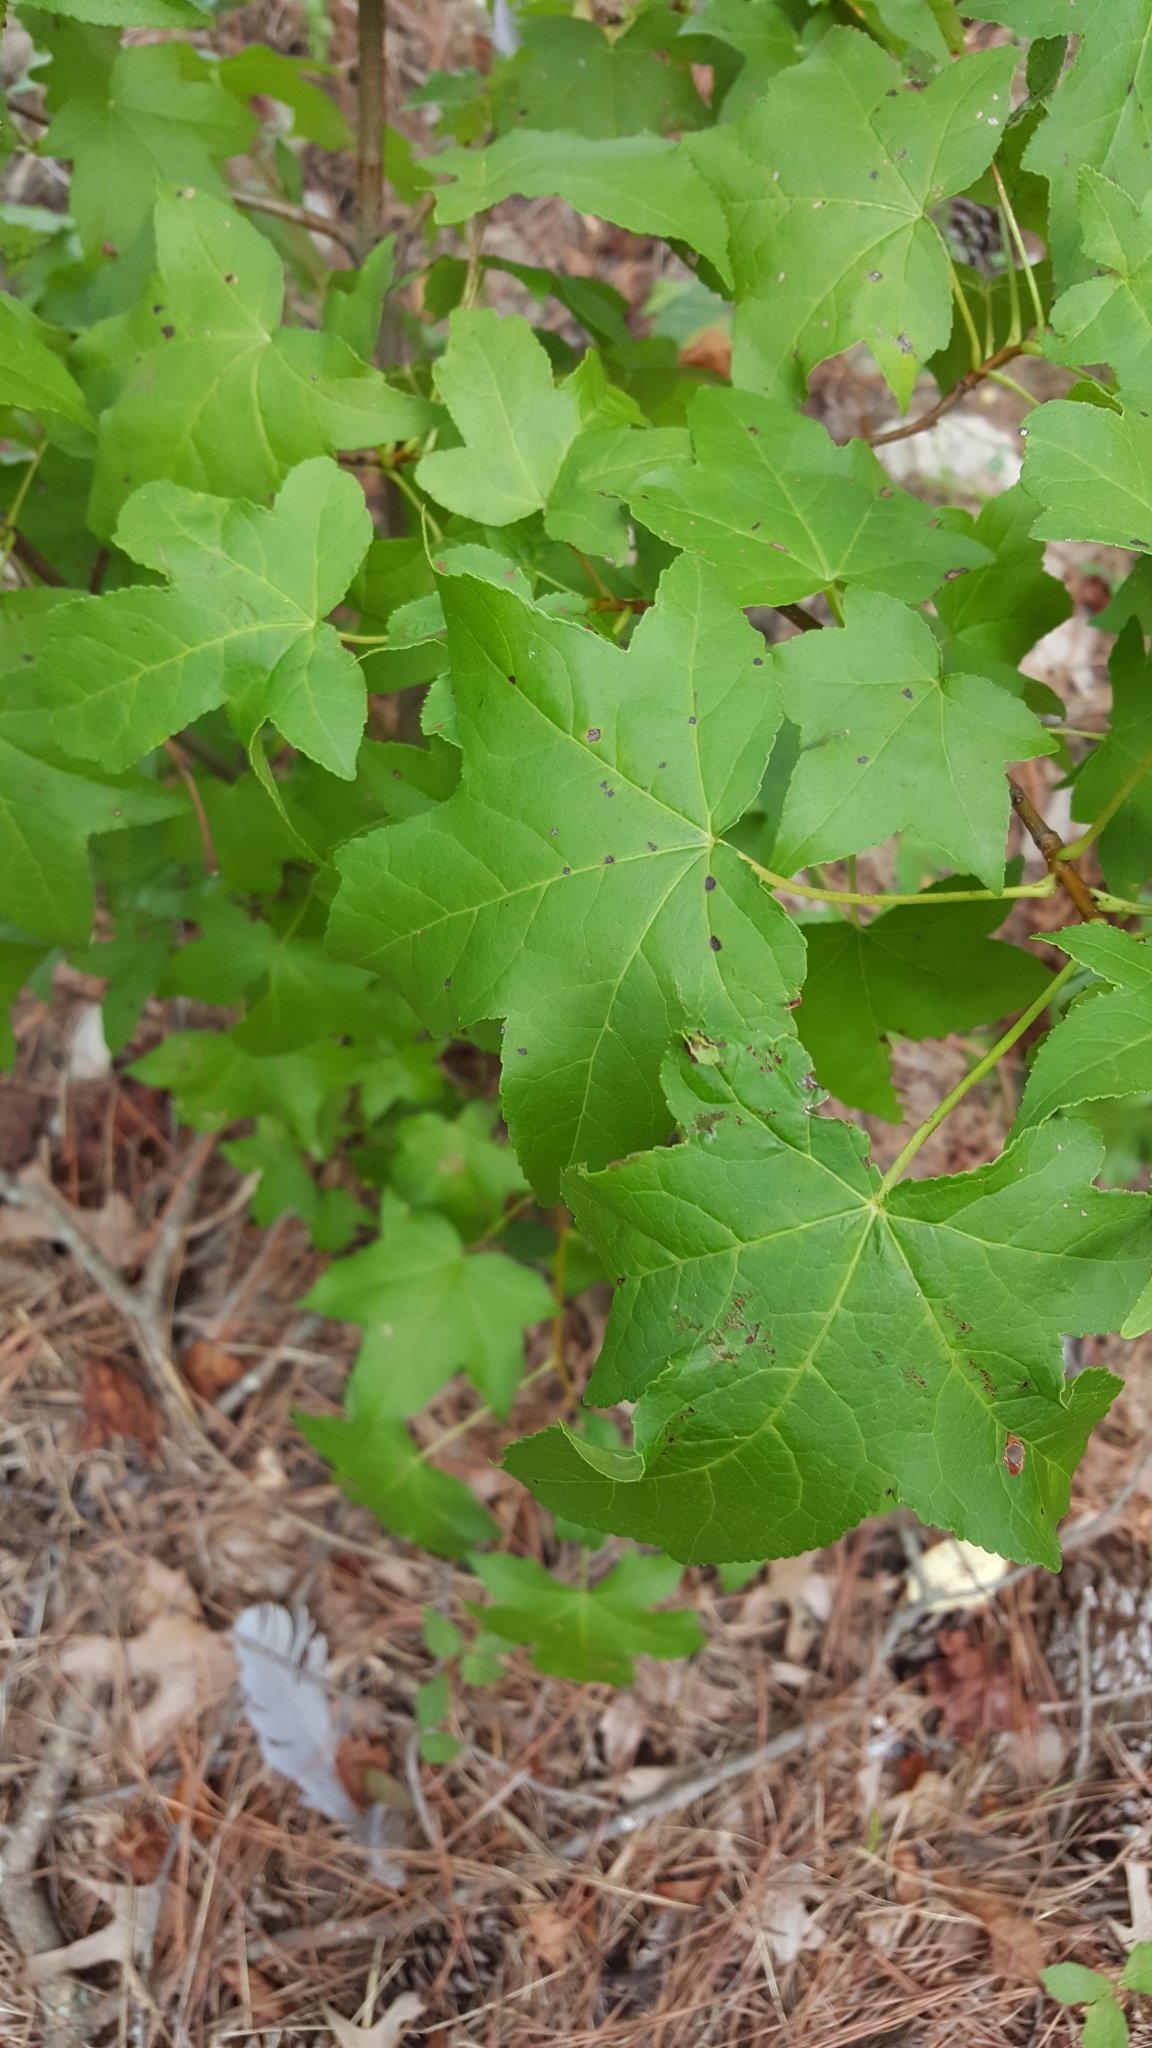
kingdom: Plantae
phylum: Tracheophyta
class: Magnoliopsida
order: Saxifragales
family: Altingiaceae
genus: Liquidambar
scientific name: Liquidambar styraciflua
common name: Sweet gum
